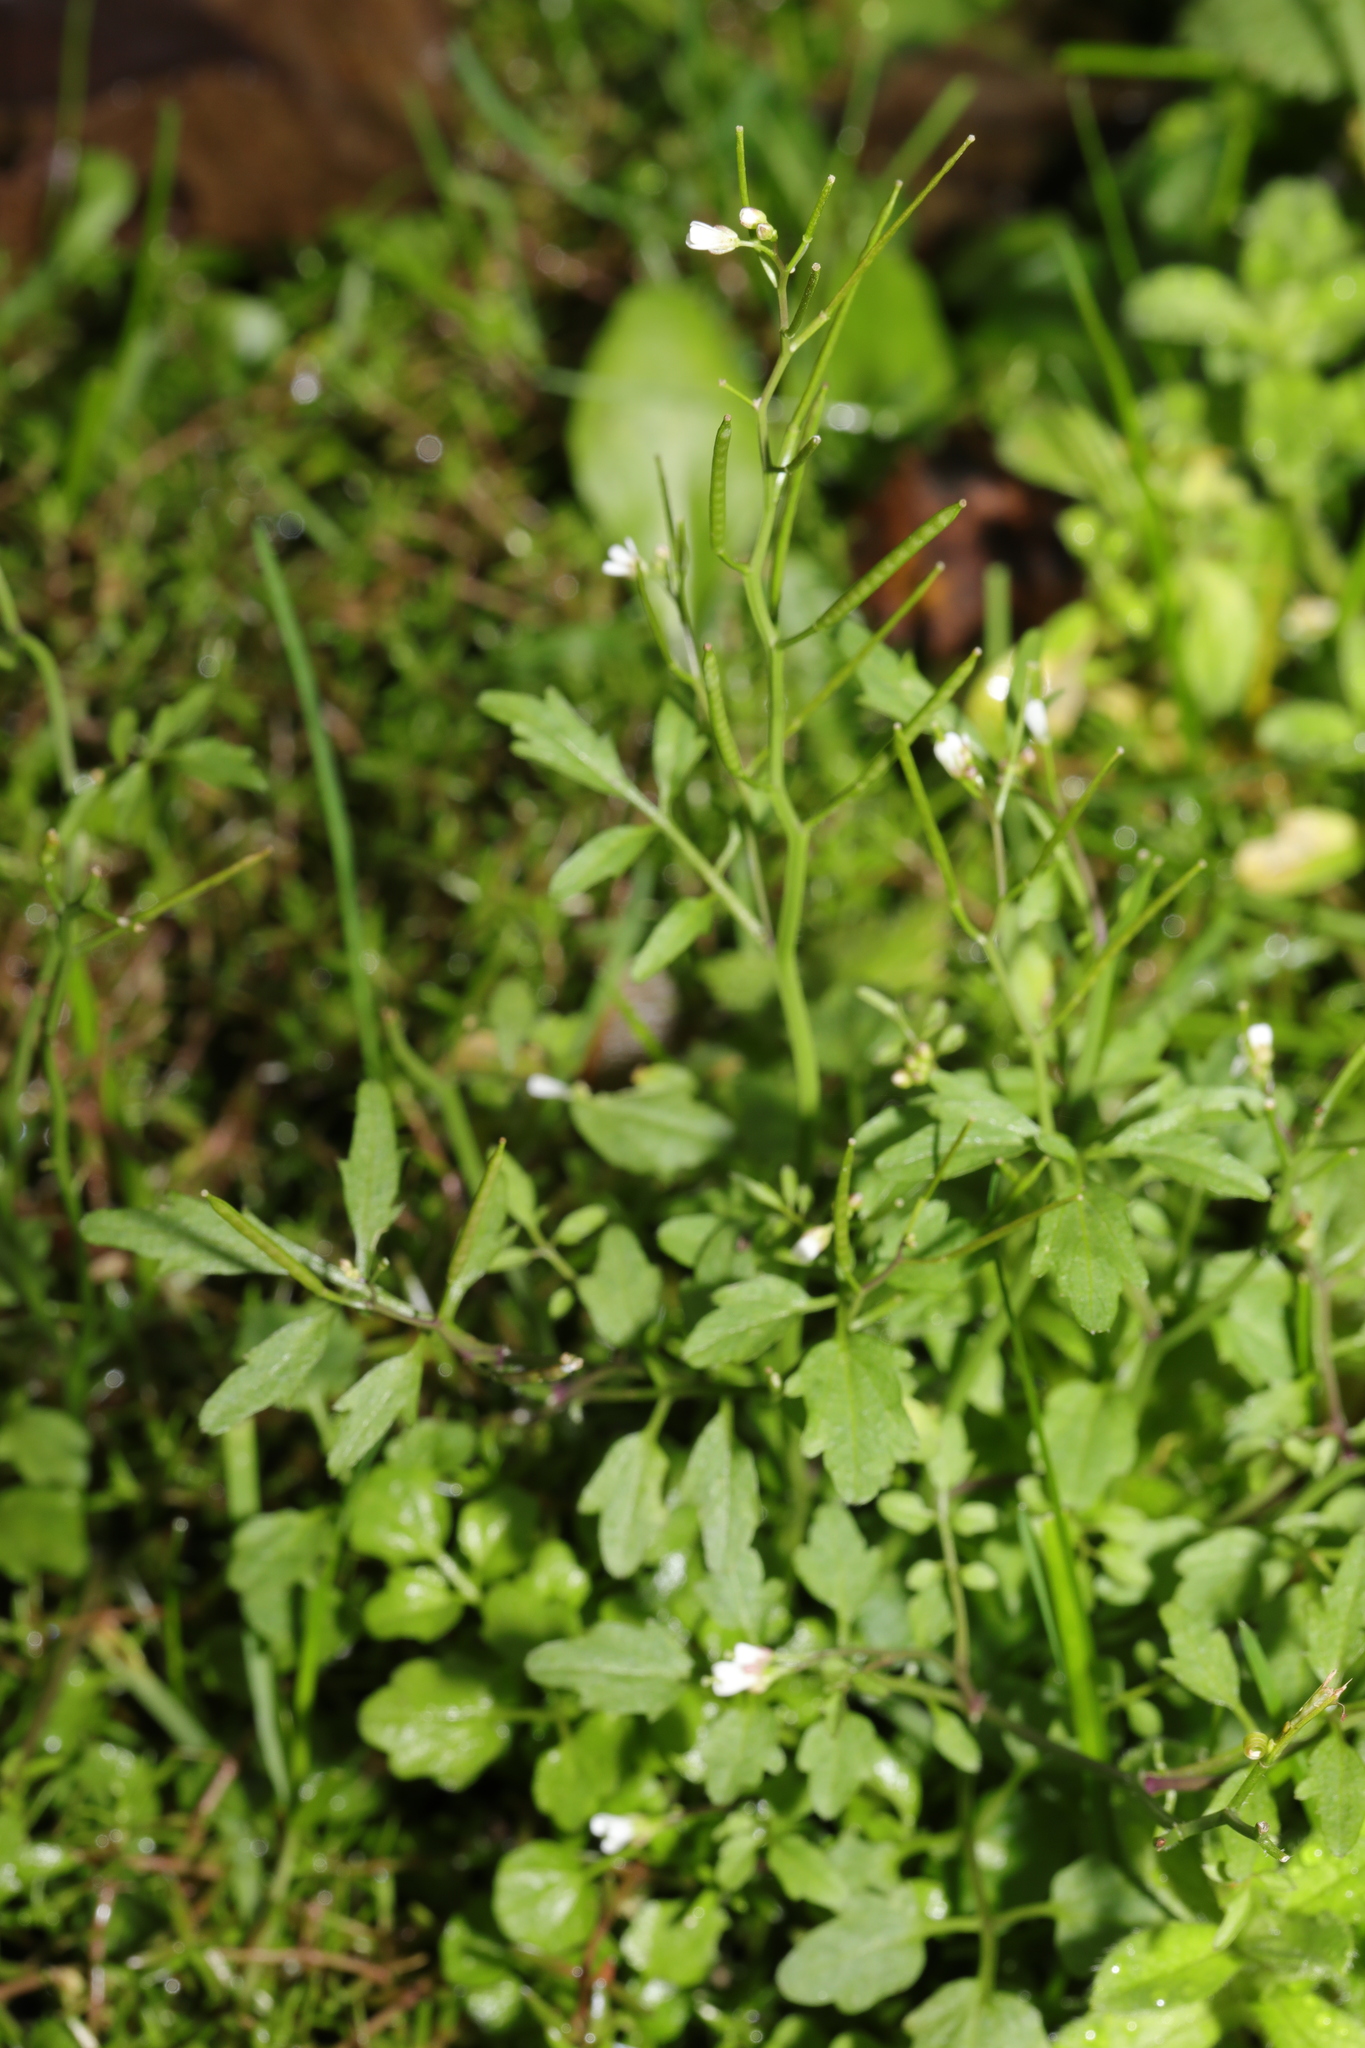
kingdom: Plantae
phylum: Tracheophyta
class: Magnoliopsida
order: Brassicales
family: Brassicaceae
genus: Cardamine
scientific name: Cardamine flexuosa
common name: Woodland bittercress
